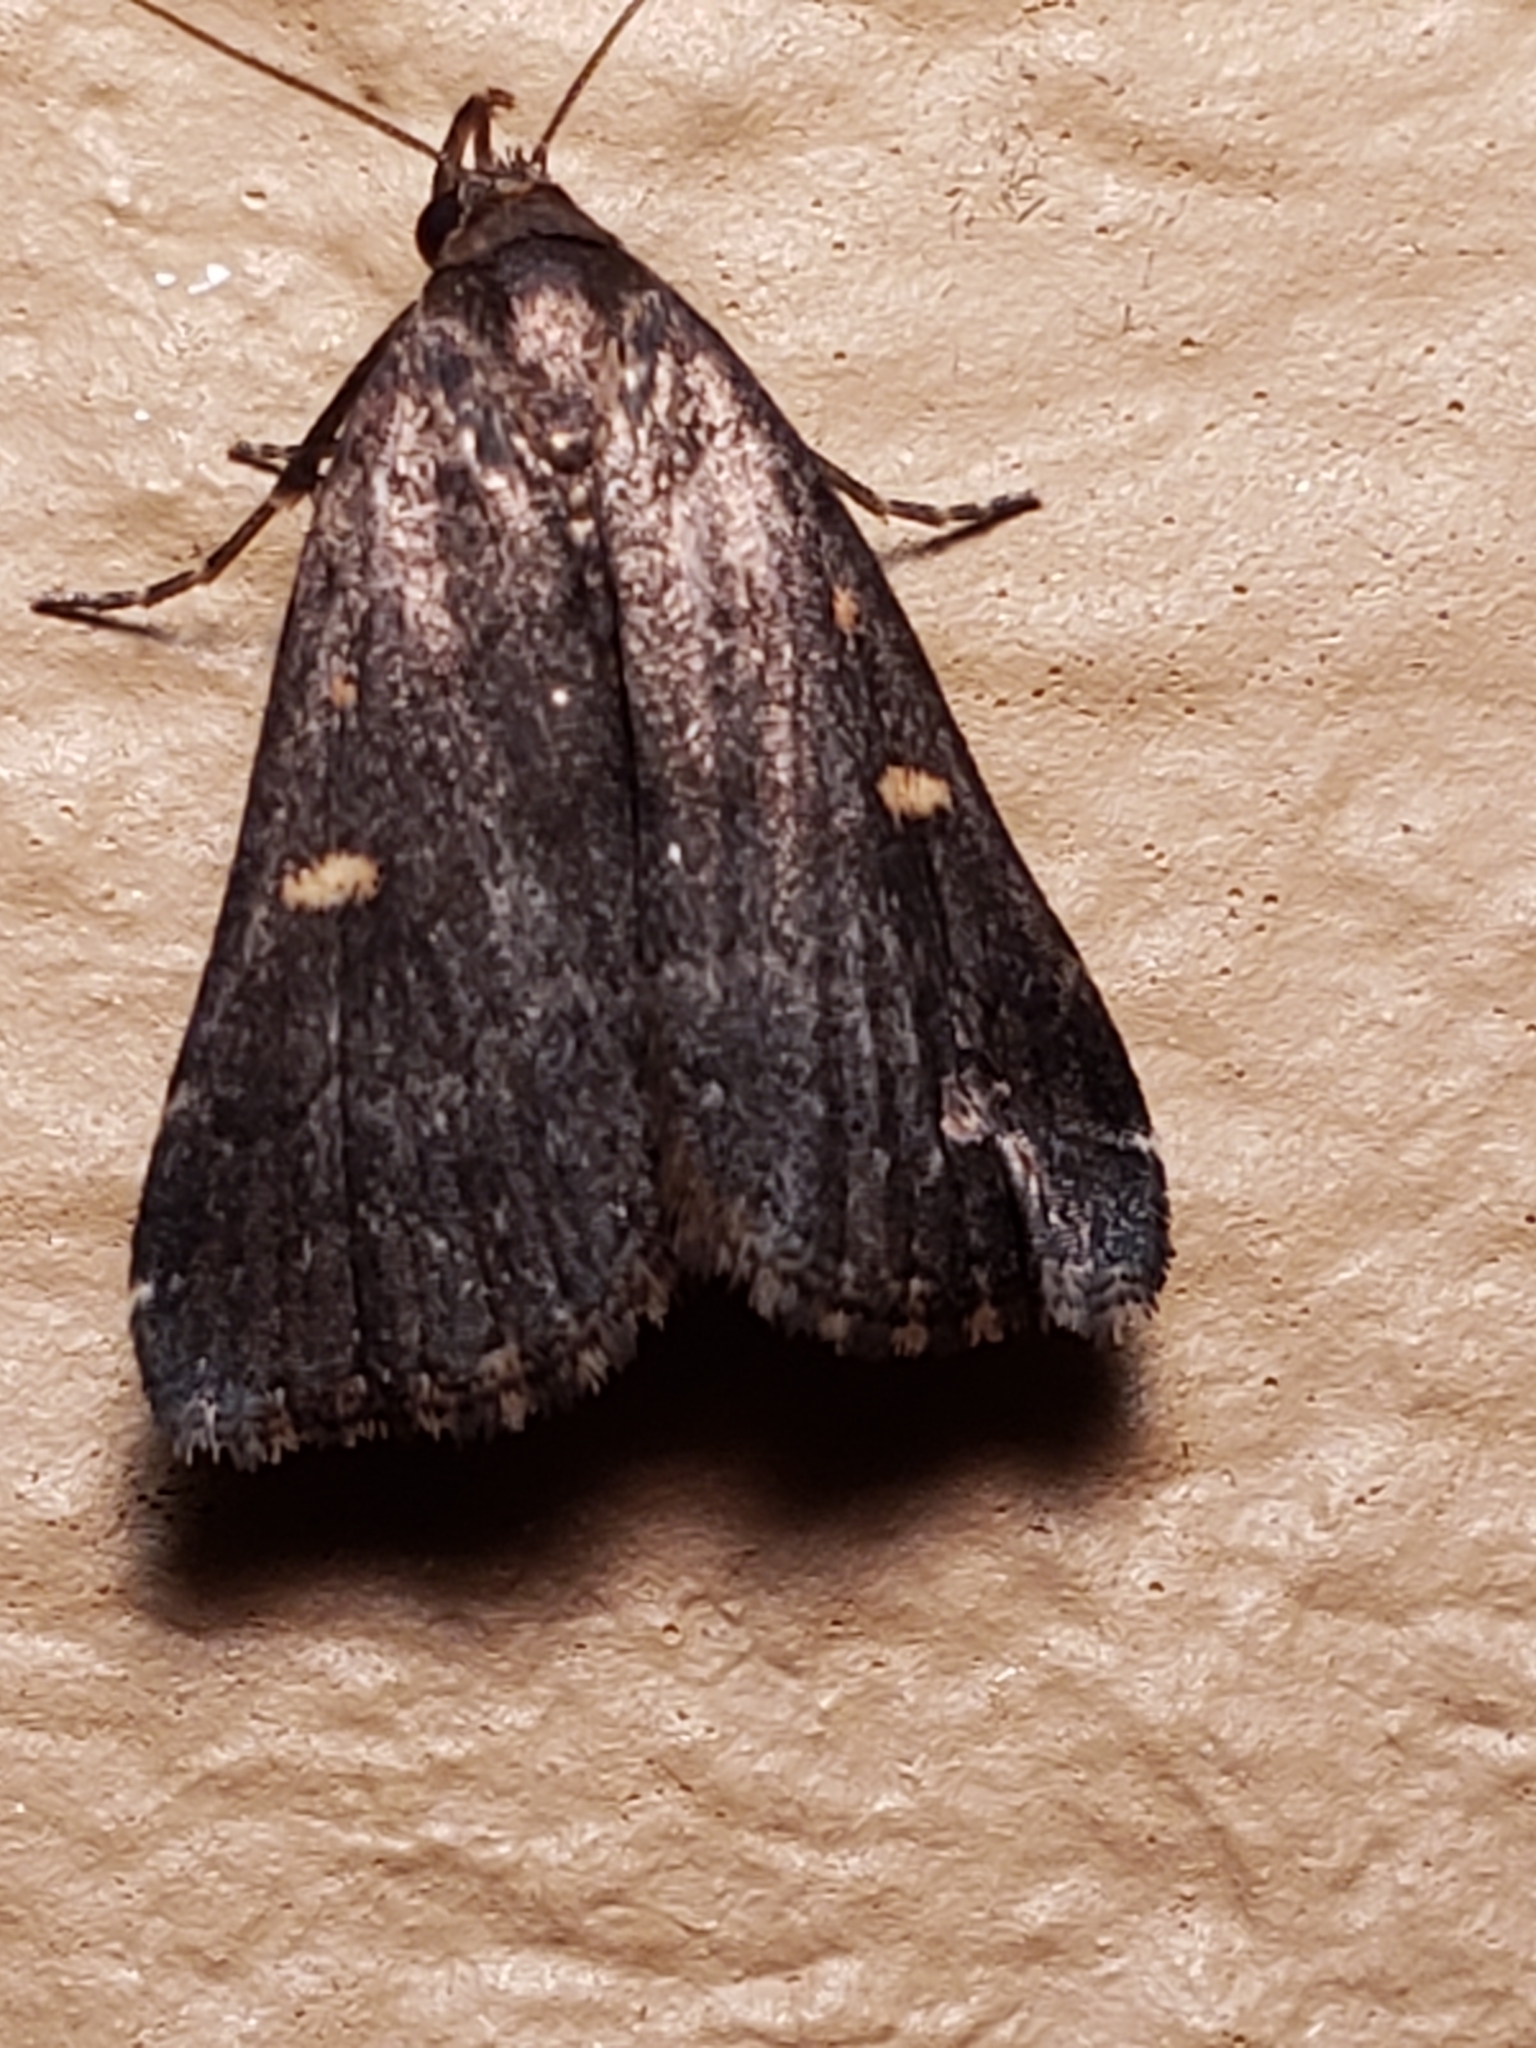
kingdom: Animalia
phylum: Arthropoda
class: Insecta
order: Lepidoptera
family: Erebidae
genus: Tetanolita
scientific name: Tetanolita mynesalis
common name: Smoky tetanolita moth
